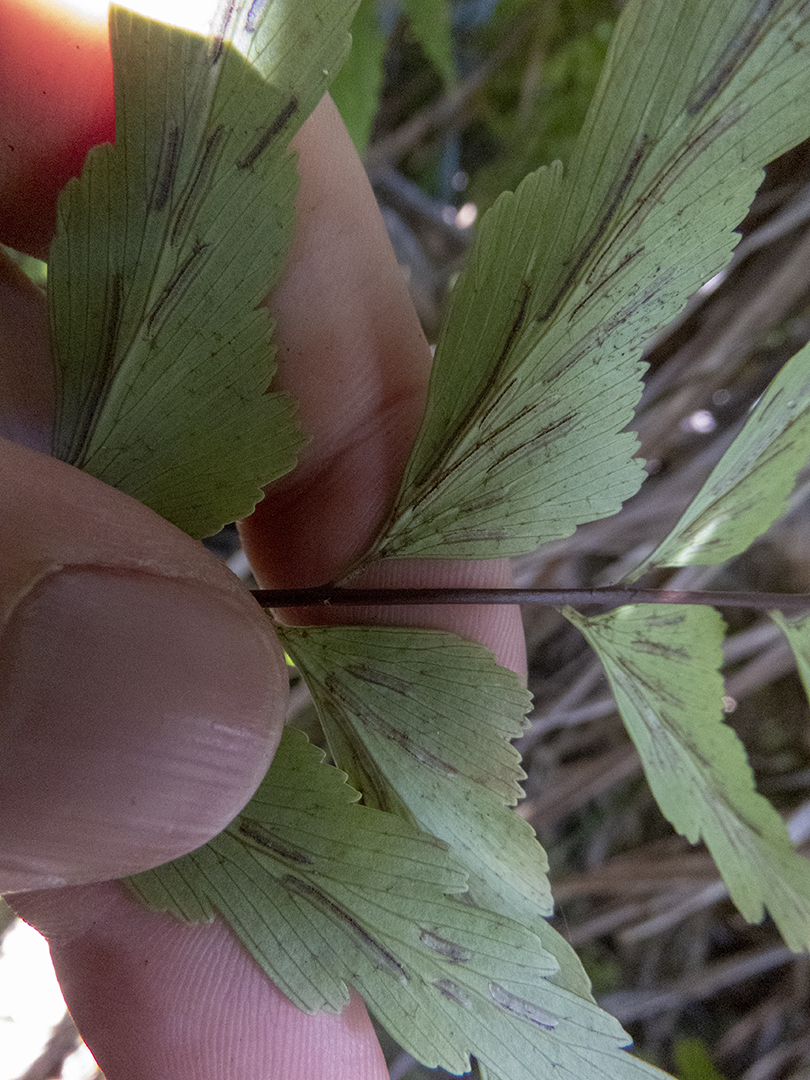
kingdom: Plantae
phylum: Tracheophyta
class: Polypodiopsida
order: Polypodiales
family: Aspleniaceae
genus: Asplenium
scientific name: Asplenium polyodon
